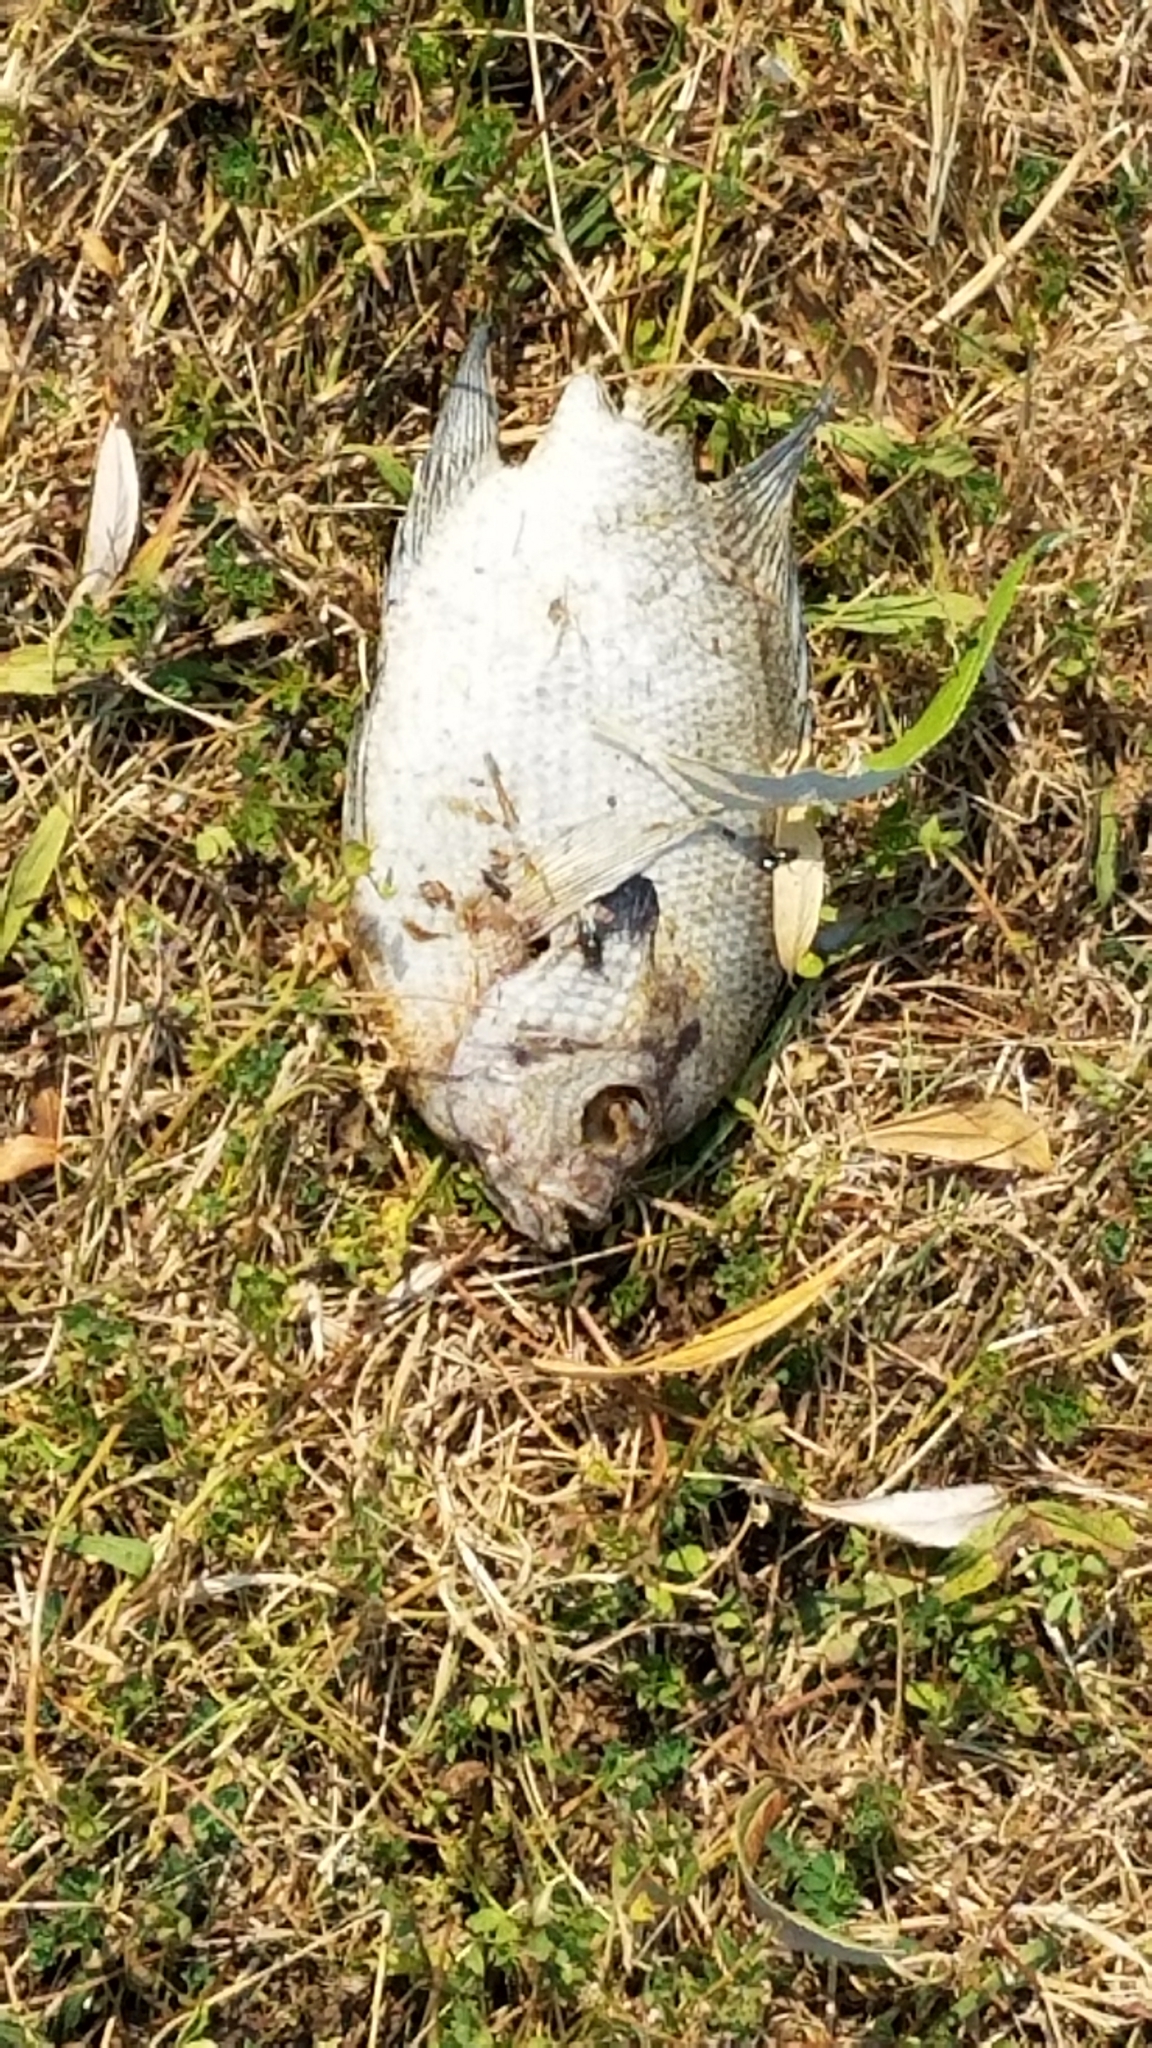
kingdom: Animalia
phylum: Chordata
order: Perciformes
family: Centrarchidae
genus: Lepomis
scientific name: Lepomis macrochirus
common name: Bluegill
